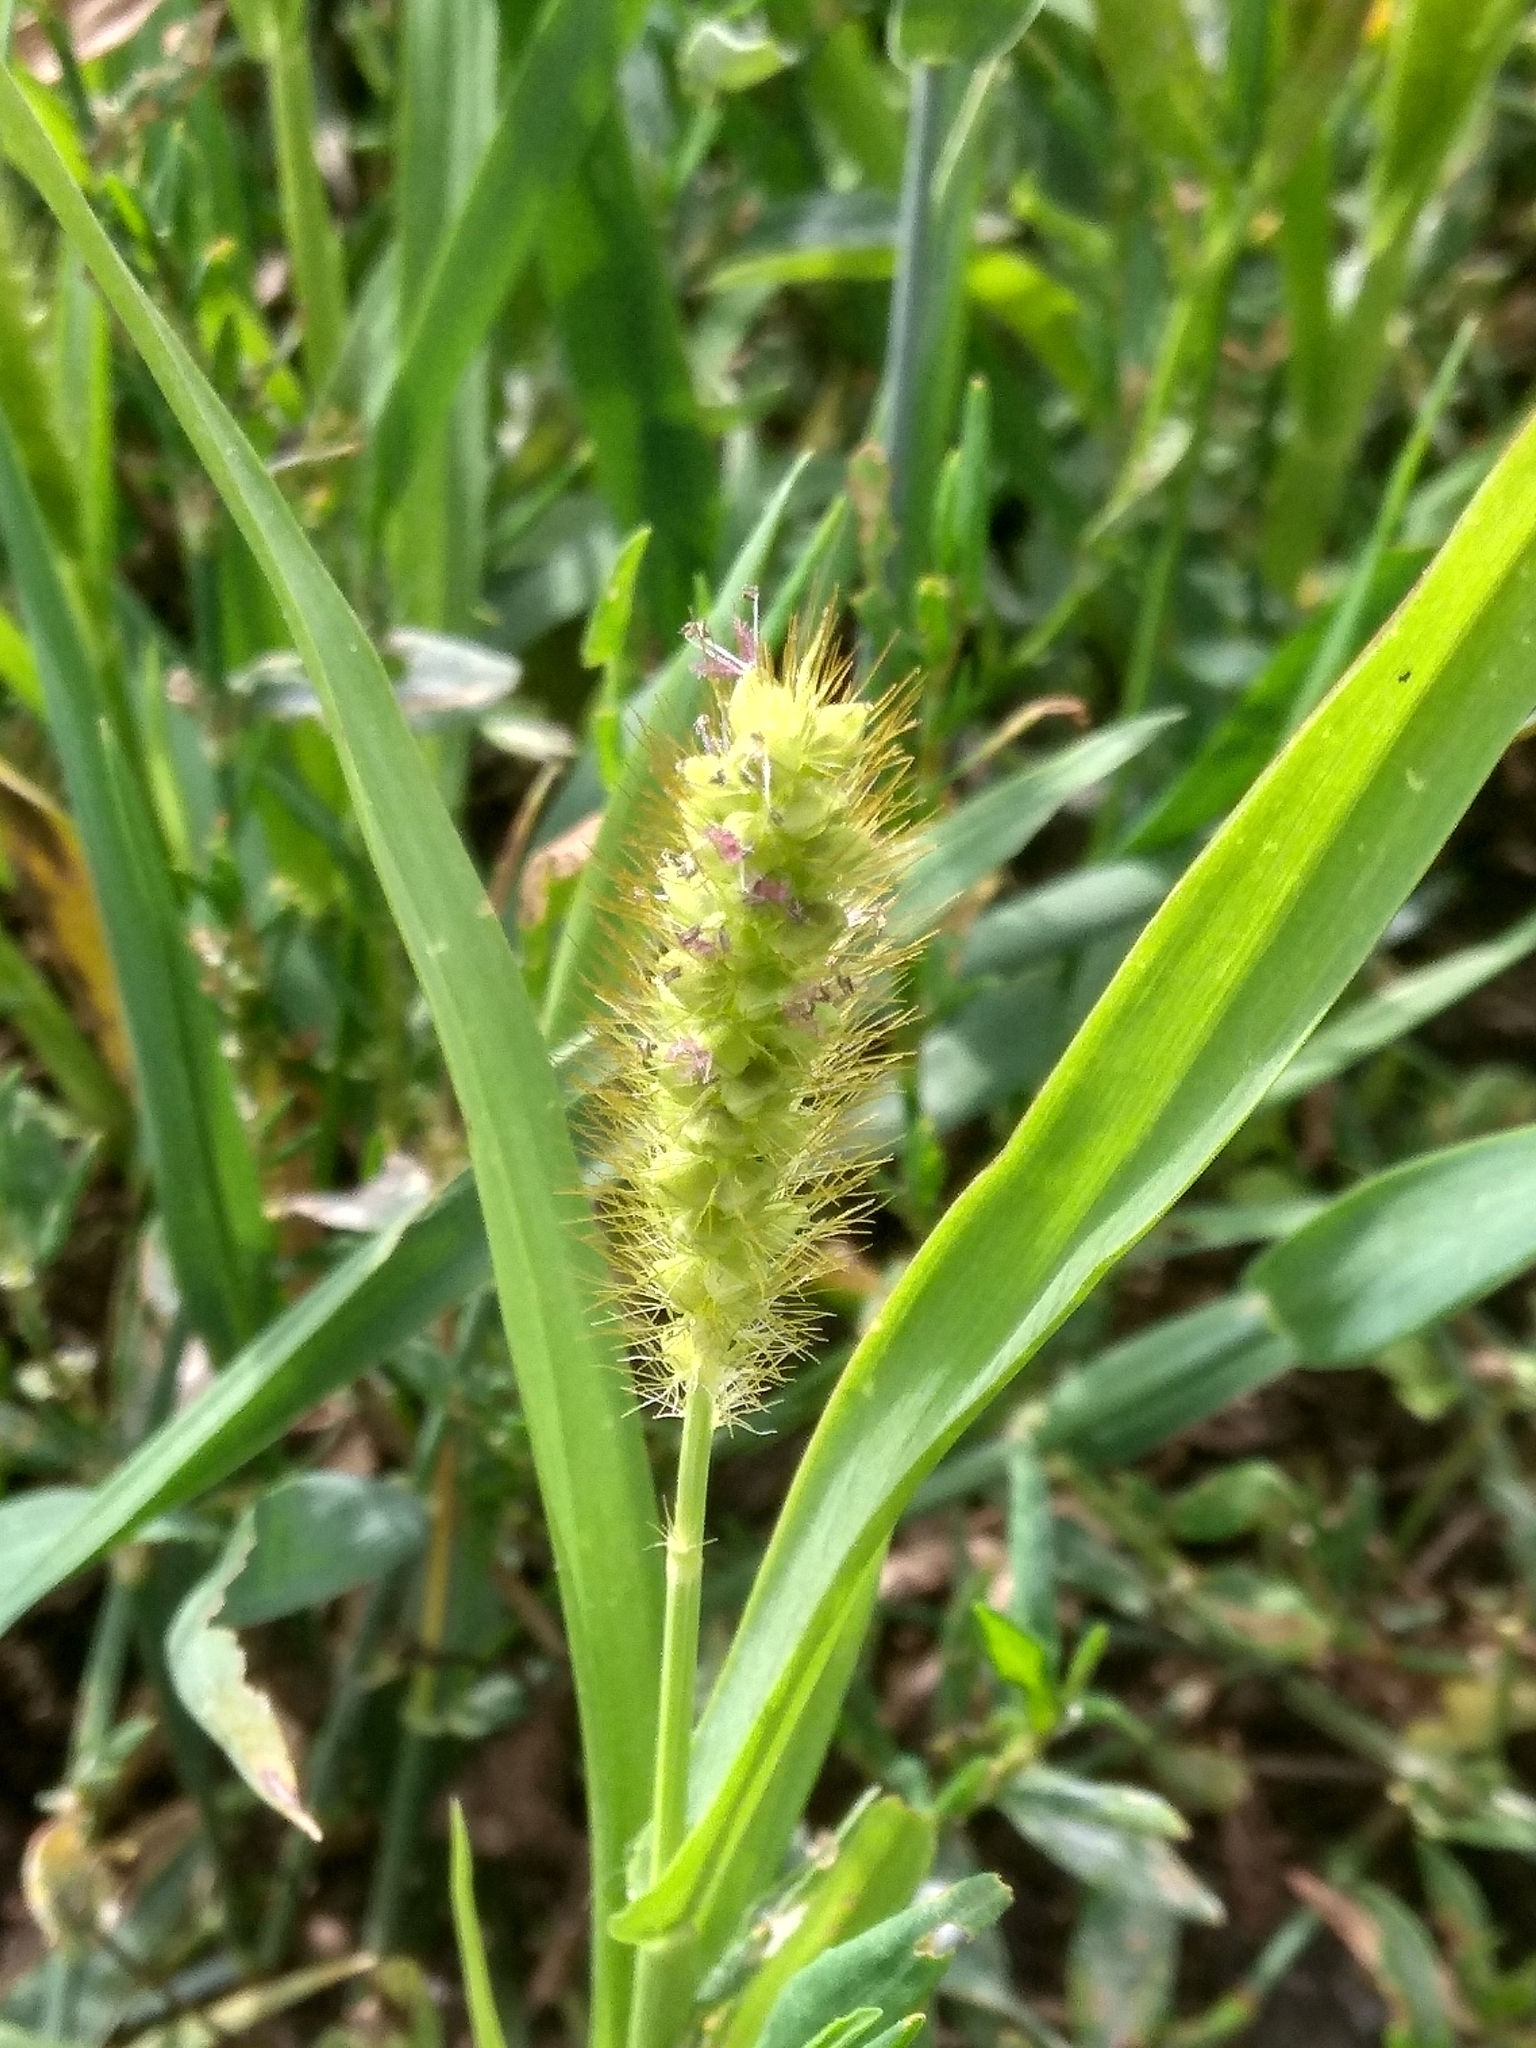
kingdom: Plantae
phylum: Tracheophyta
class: Liliopsida
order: Poales
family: Poaceae
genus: Setaria
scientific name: Setaria pumila
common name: Yellow bristle-grass
